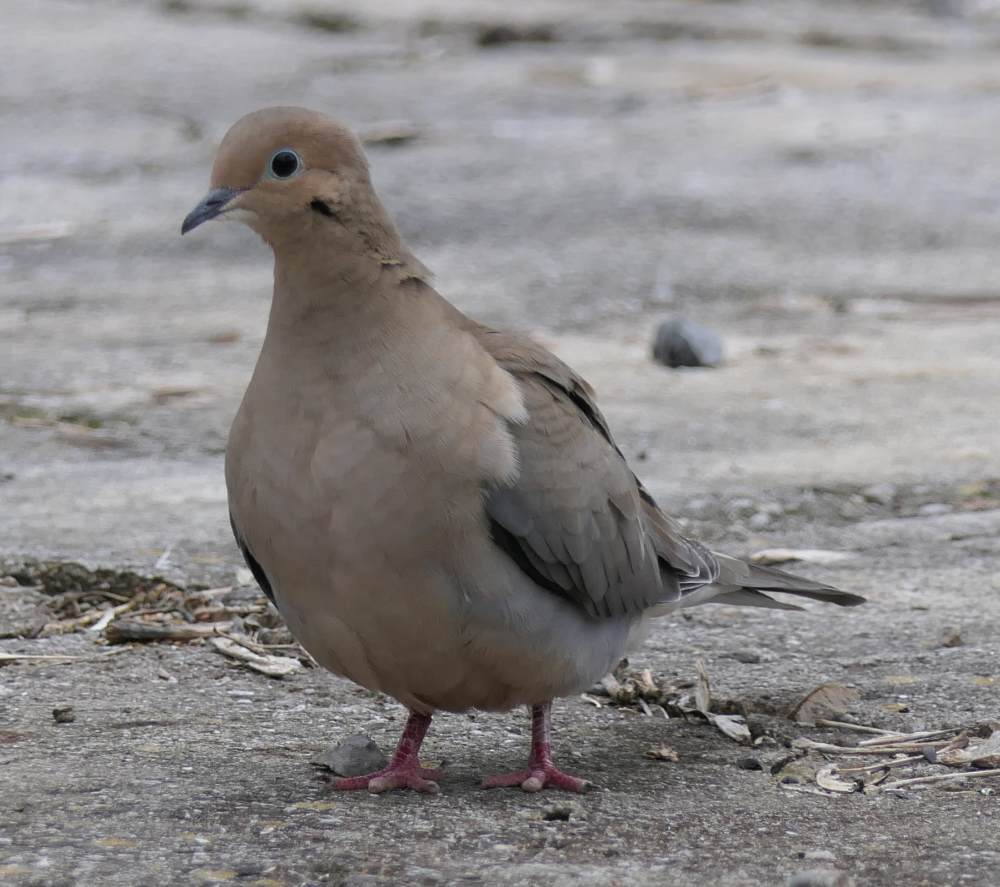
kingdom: Animalia
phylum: Chordata
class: Aves
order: Columbiformes
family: Columbidae
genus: Zenaida
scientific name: Zenaida macroura
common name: Mourning dove
